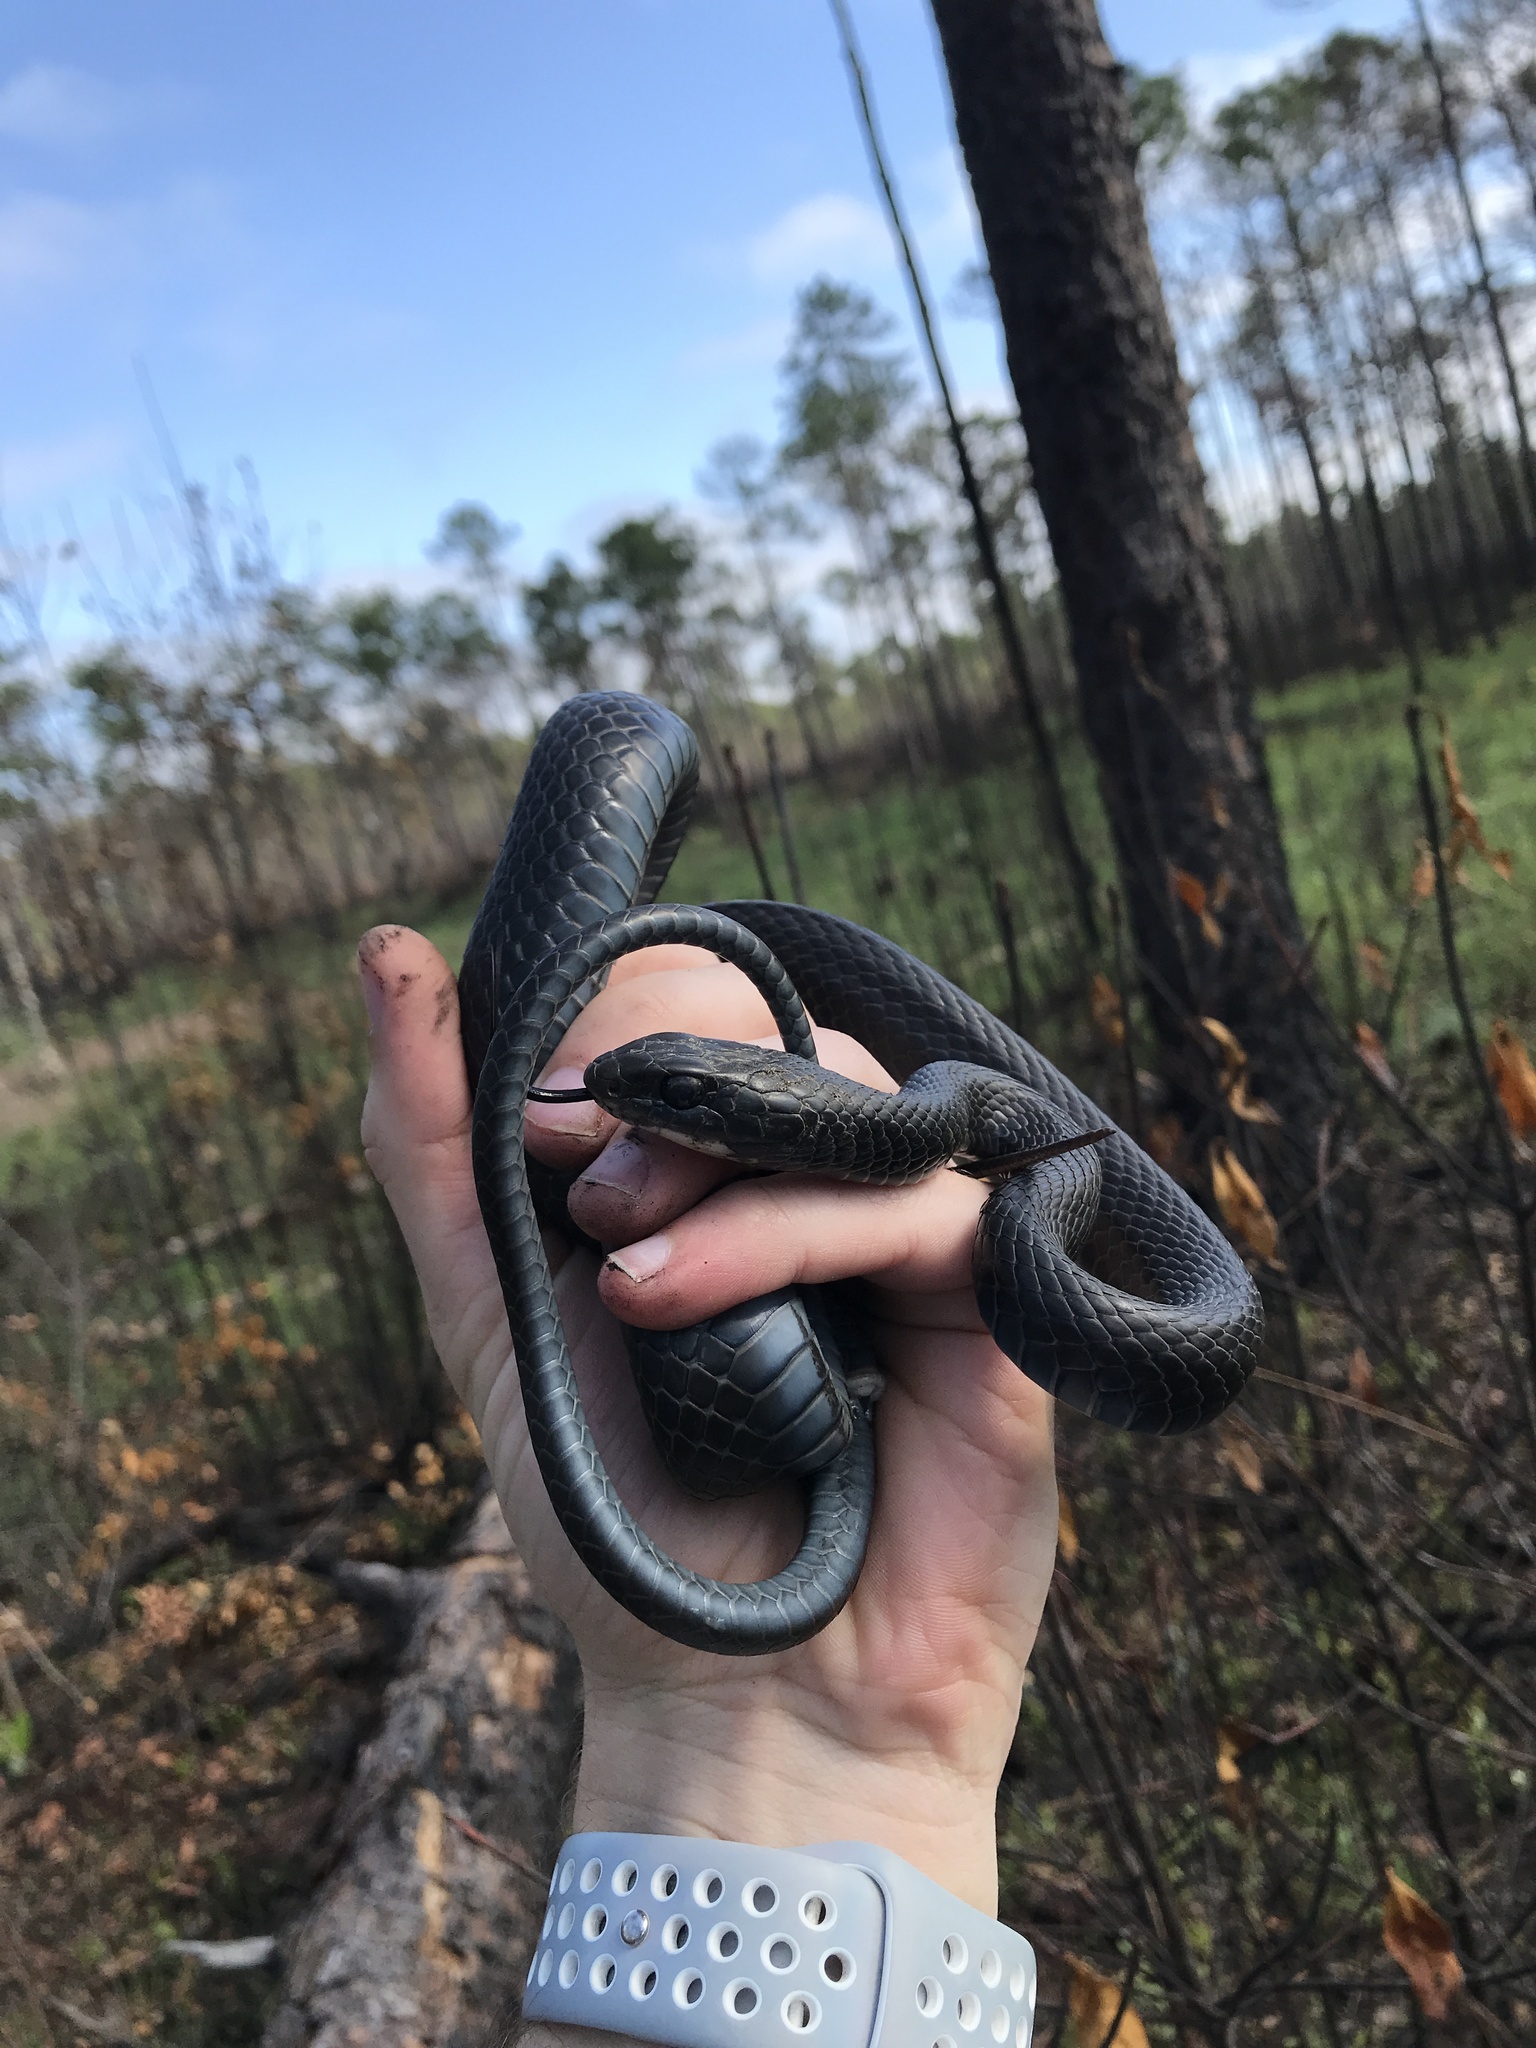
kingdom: Animalia
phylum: Chordata
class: Squamata
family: Colubridae
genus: Coluber
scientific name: Coluber constrictor
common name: Eastern racer
